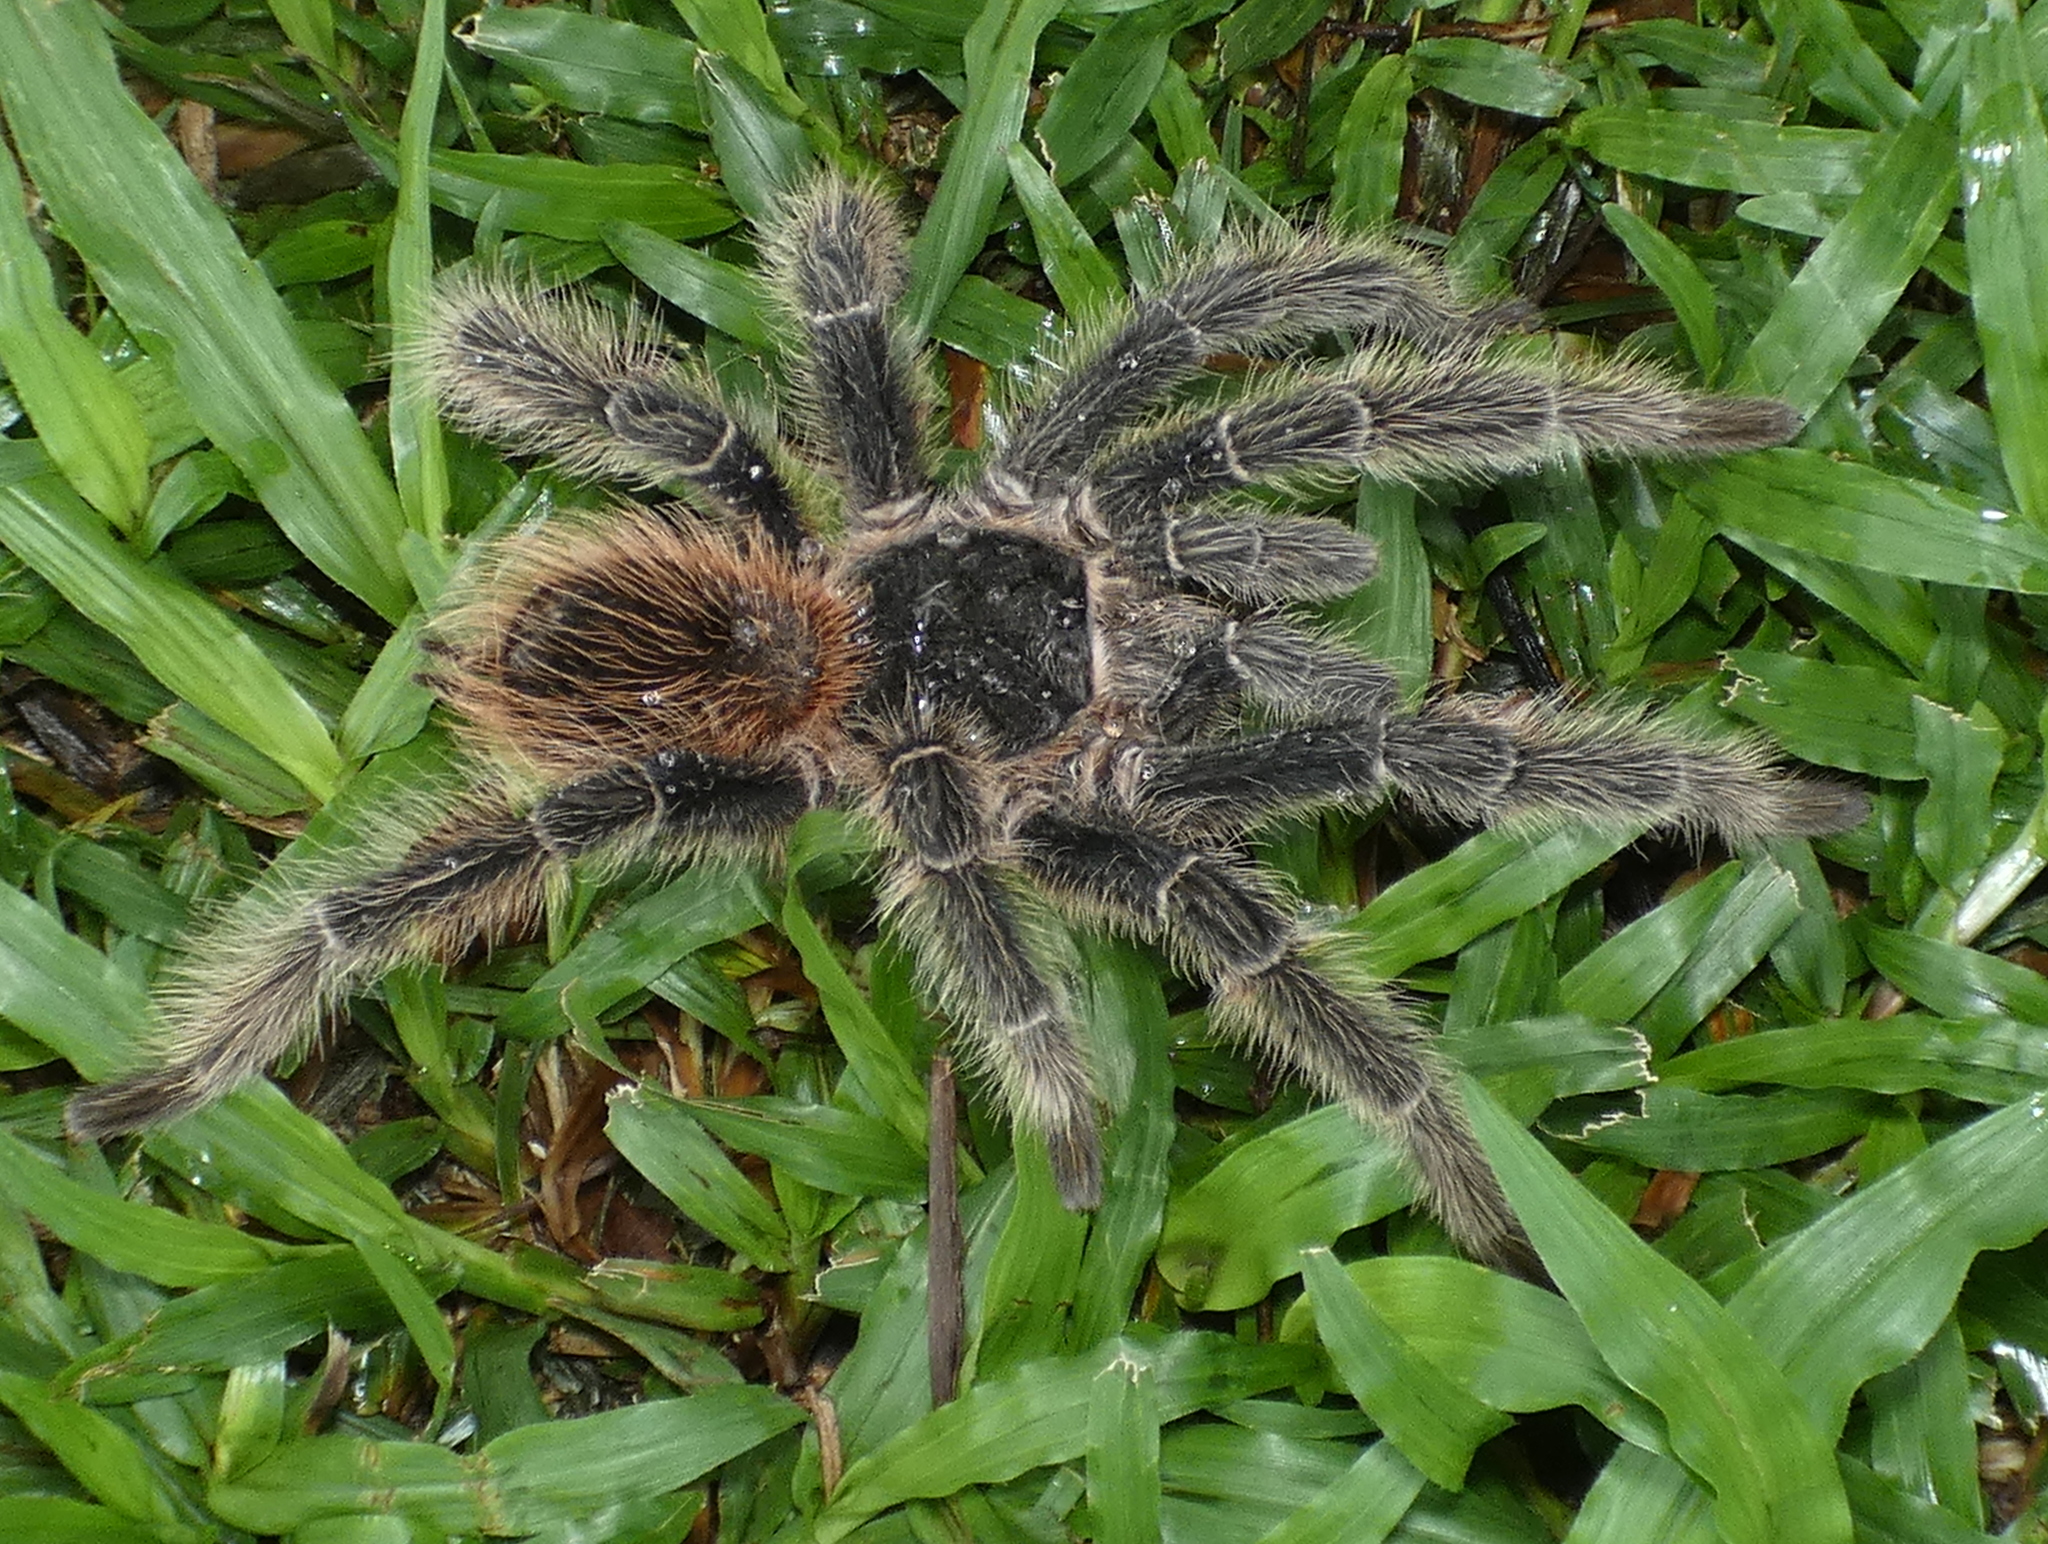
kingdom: Animalia
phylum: Arthropoda
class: Arachnida
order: Araneae
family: Theraphosidae
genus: Lasiodora
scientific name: Lasiodora parahybana
